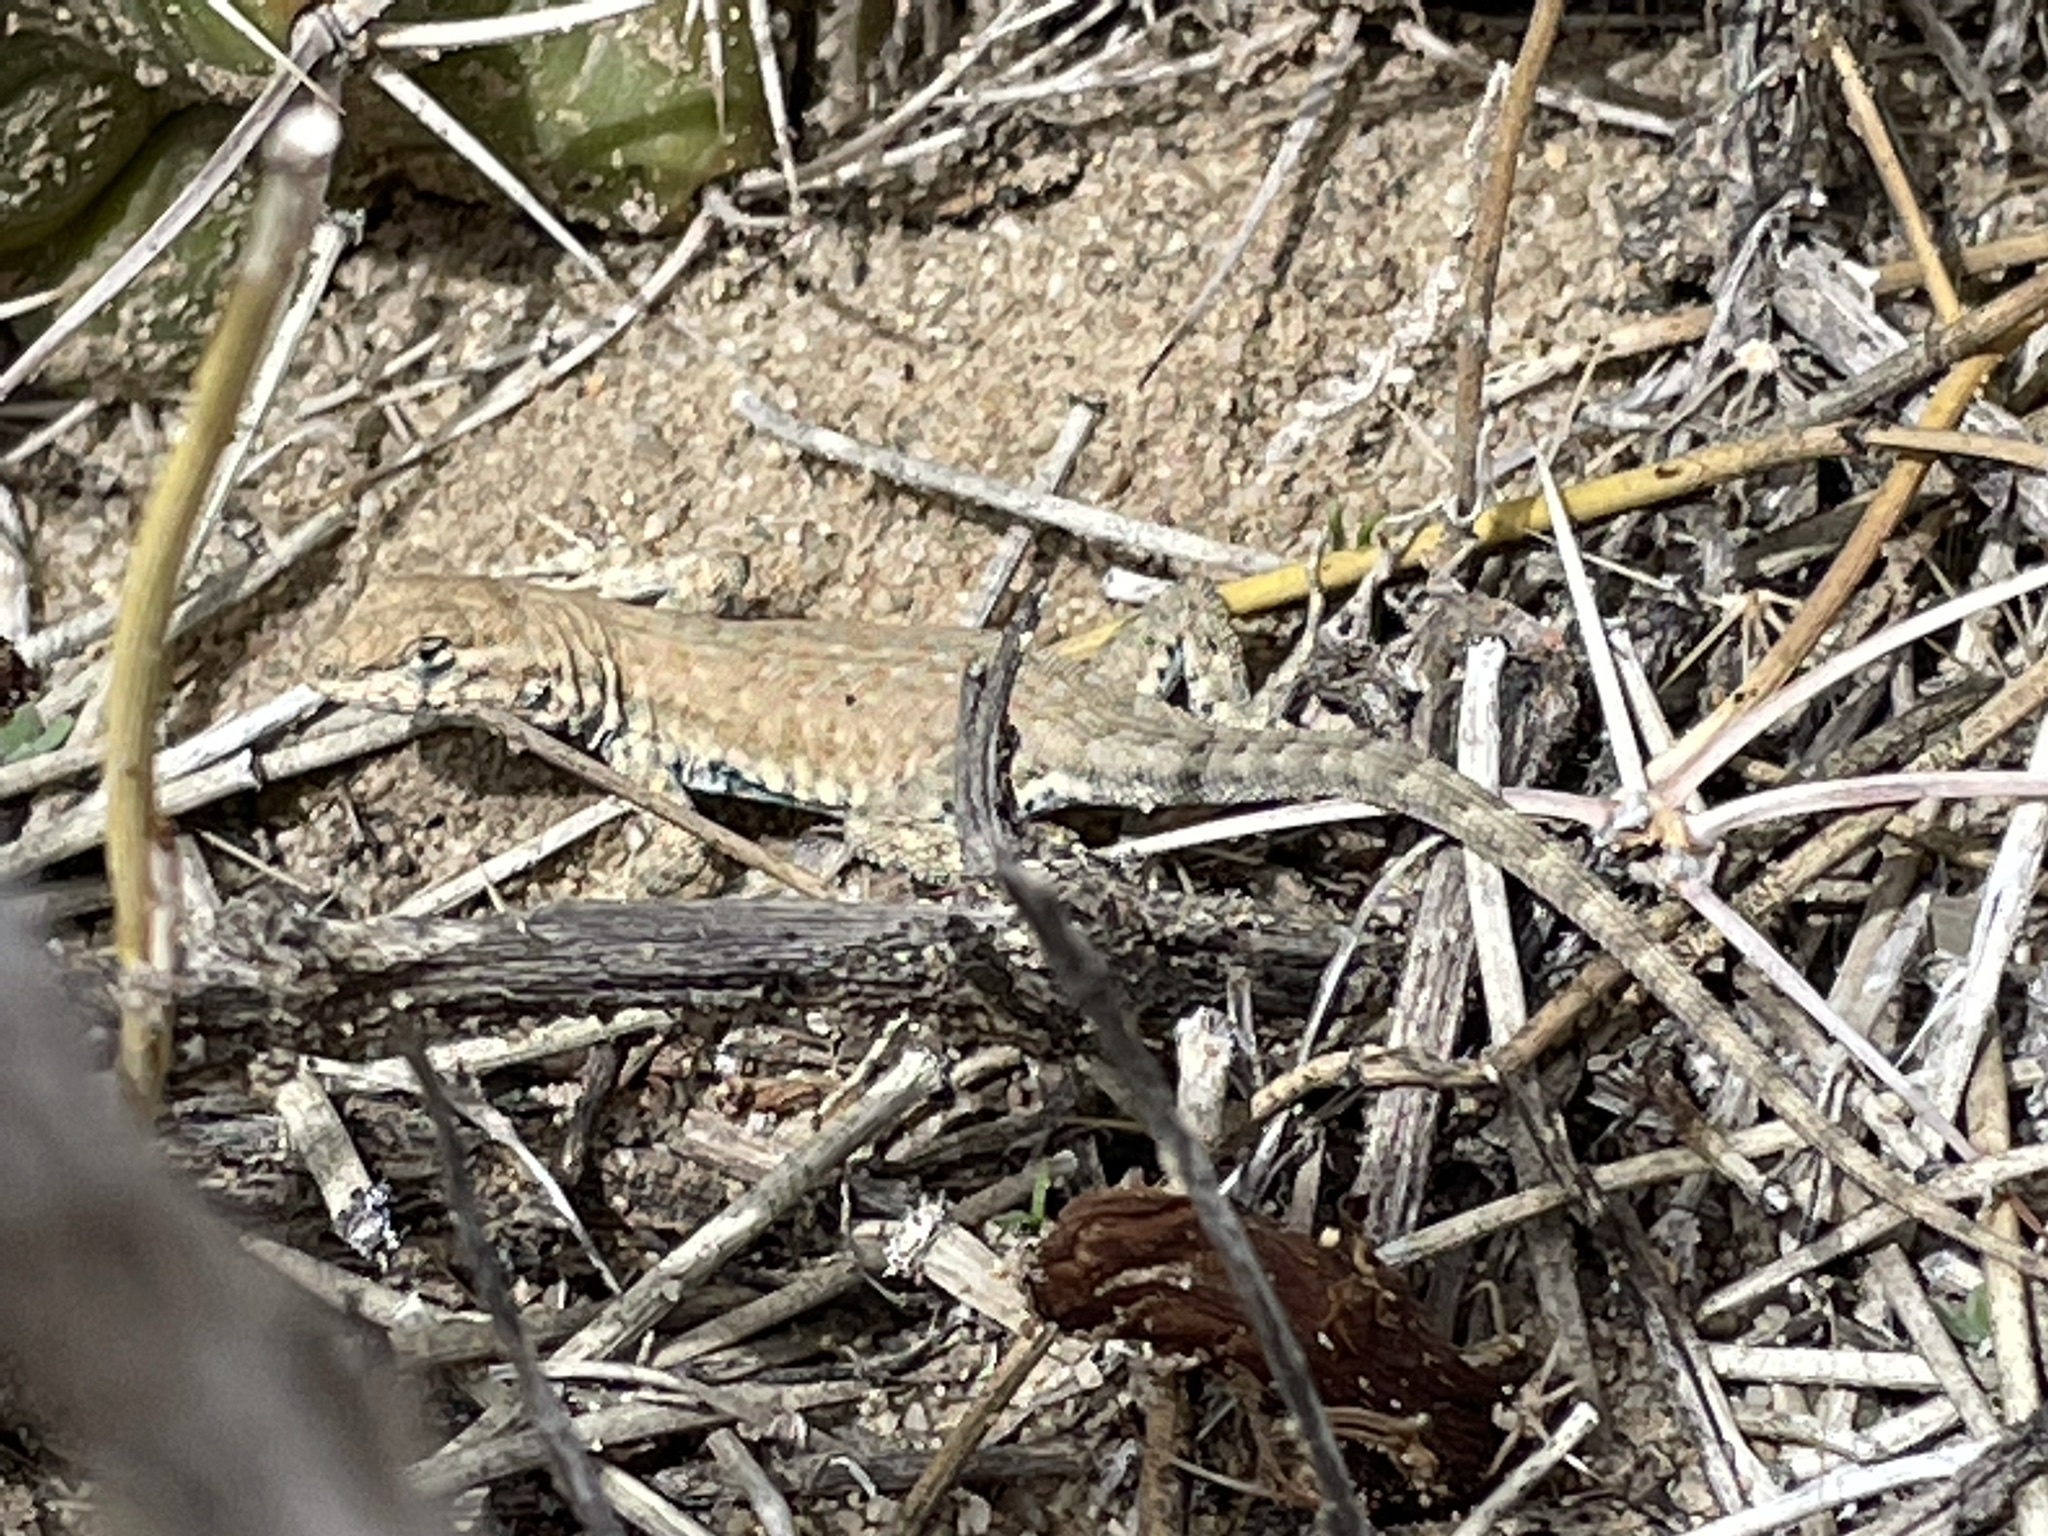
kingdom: Animalia
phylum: Chordata
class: Squamata
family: Phrynosomatidae
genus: Uta
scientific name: Uta stansburiana
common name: Side-blotched lizard
